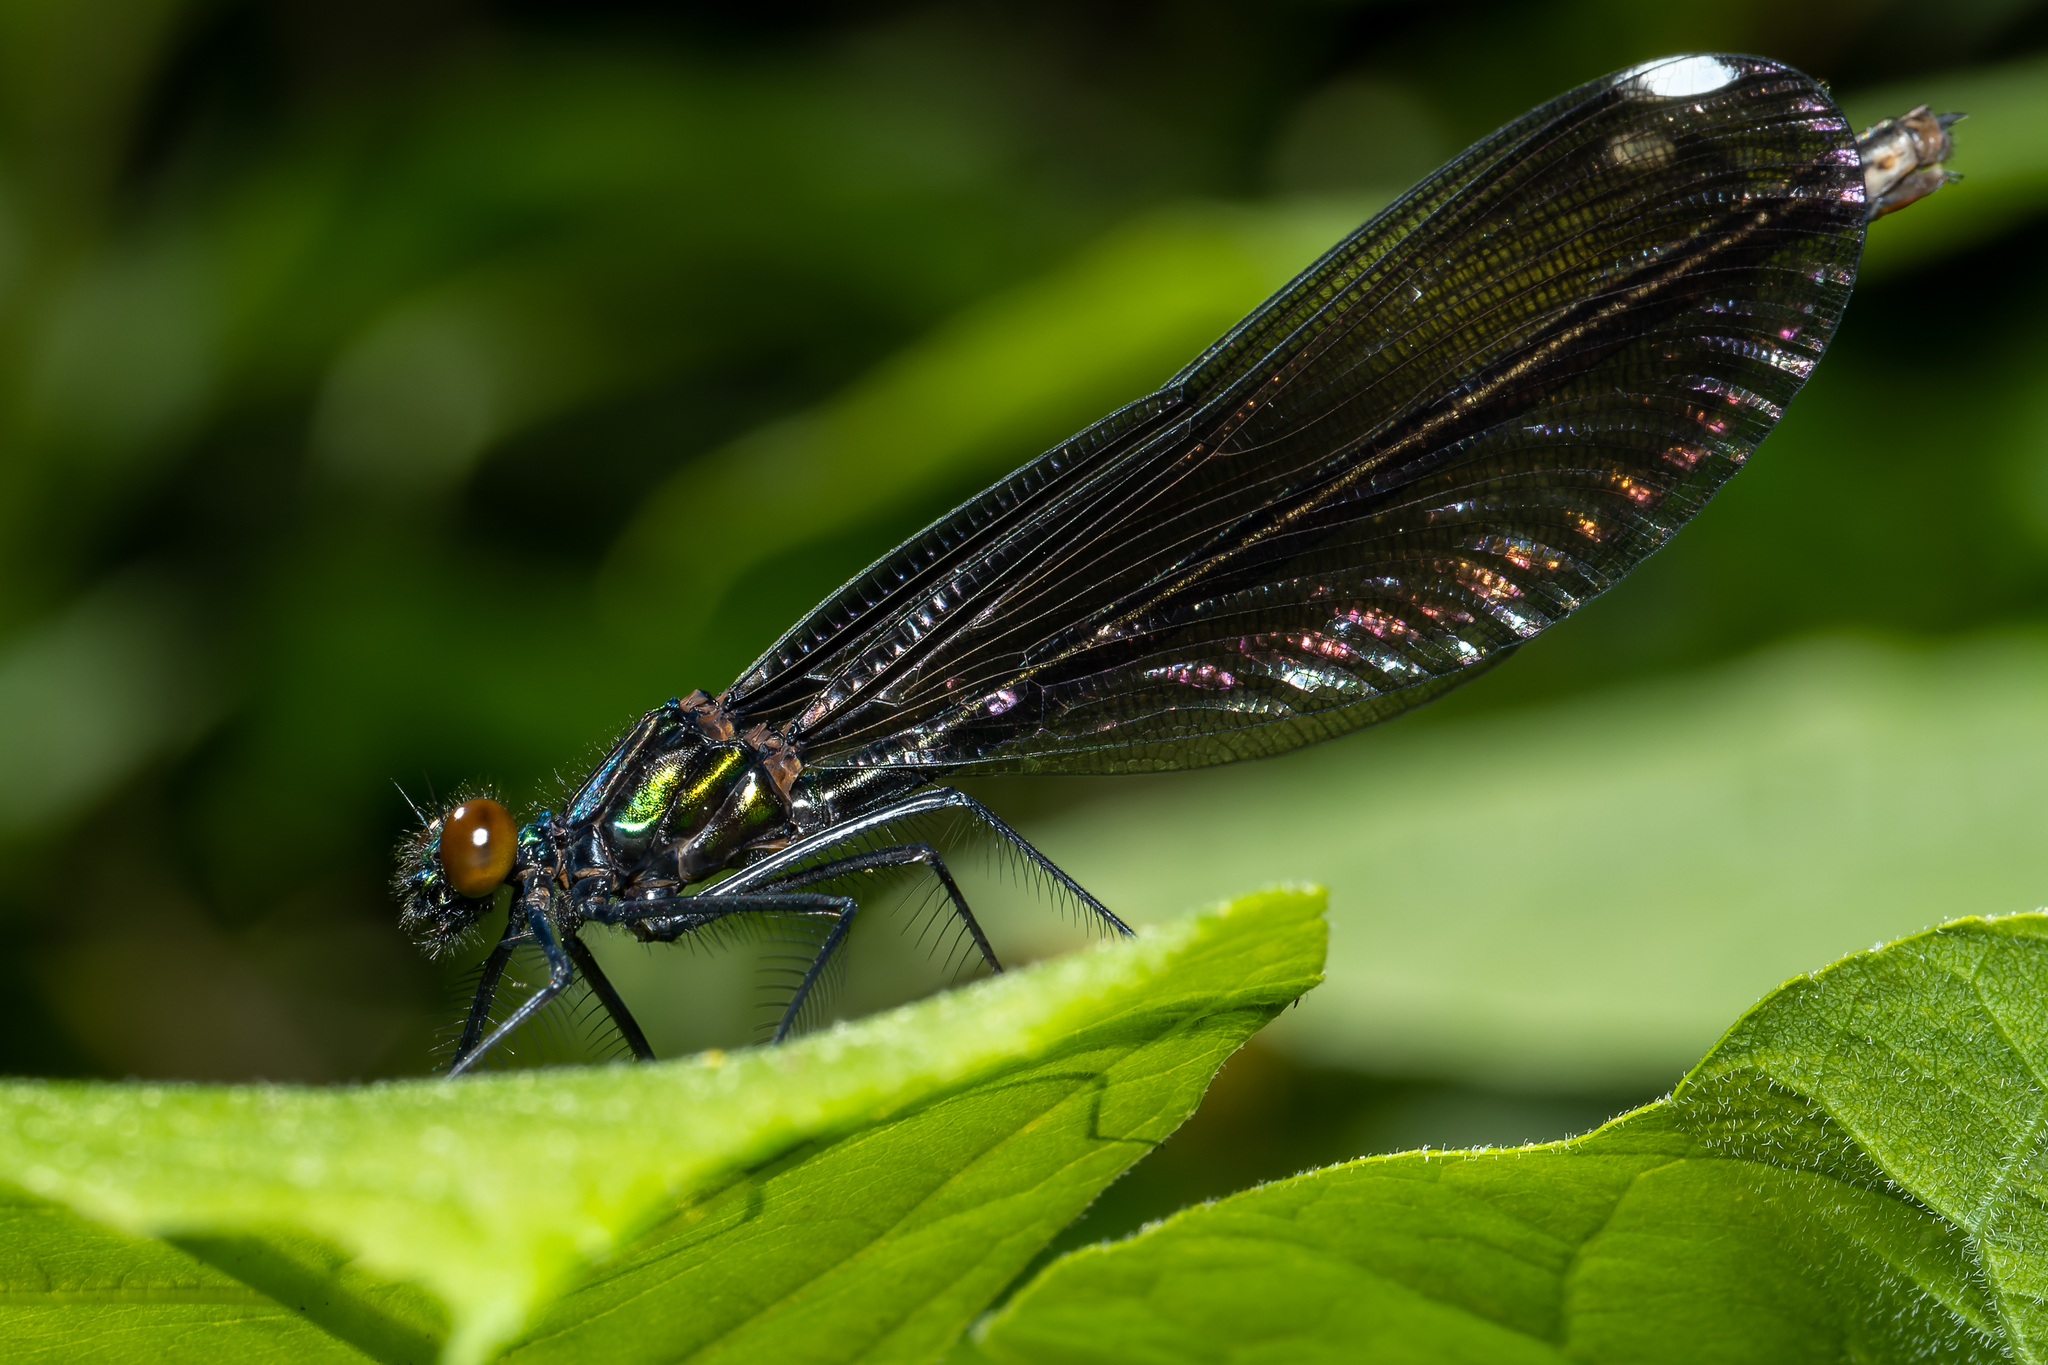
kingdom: Animalia
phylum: Arthropoda
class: Insecta
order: Odonata
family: Calopterygidae
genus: Calopteryx
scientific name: Calopteryx maculata
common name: Ebony jewelwing
